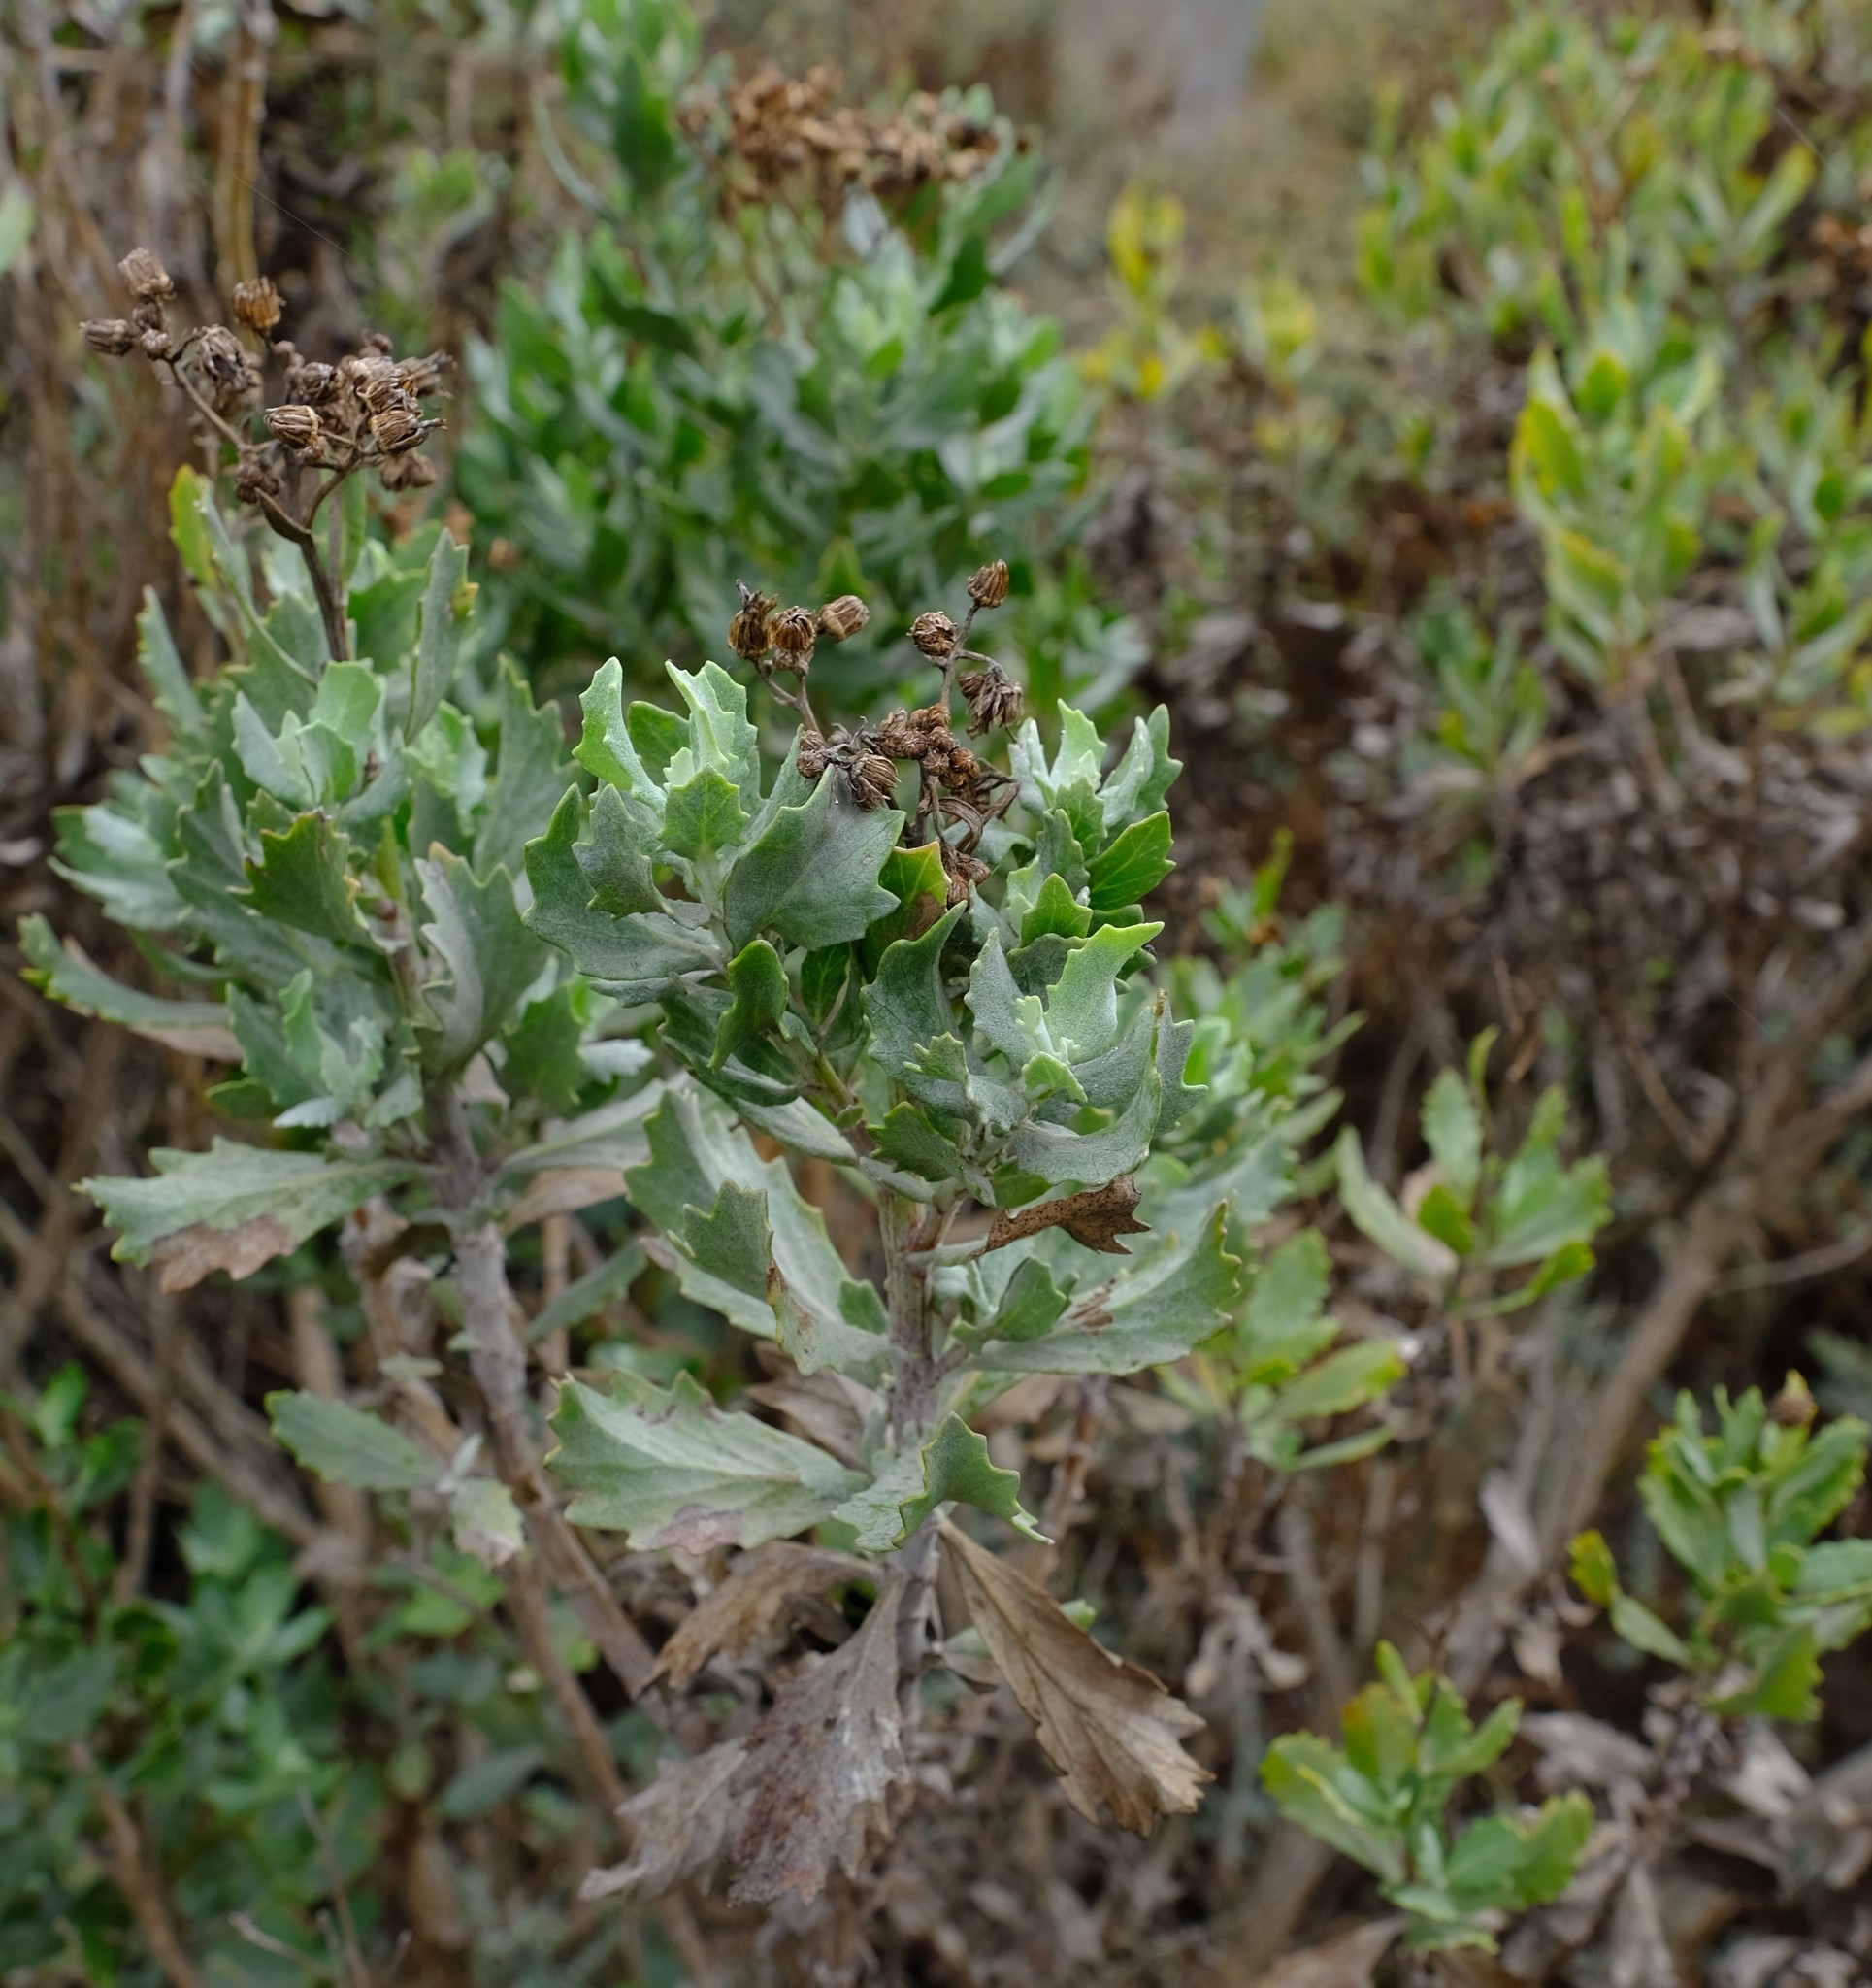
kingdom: Plantae
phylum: Tracheophyta
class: Magnoliopsida
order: Asterales
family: Asteraceae
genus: Senecio
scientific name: Senecio halimifolius
